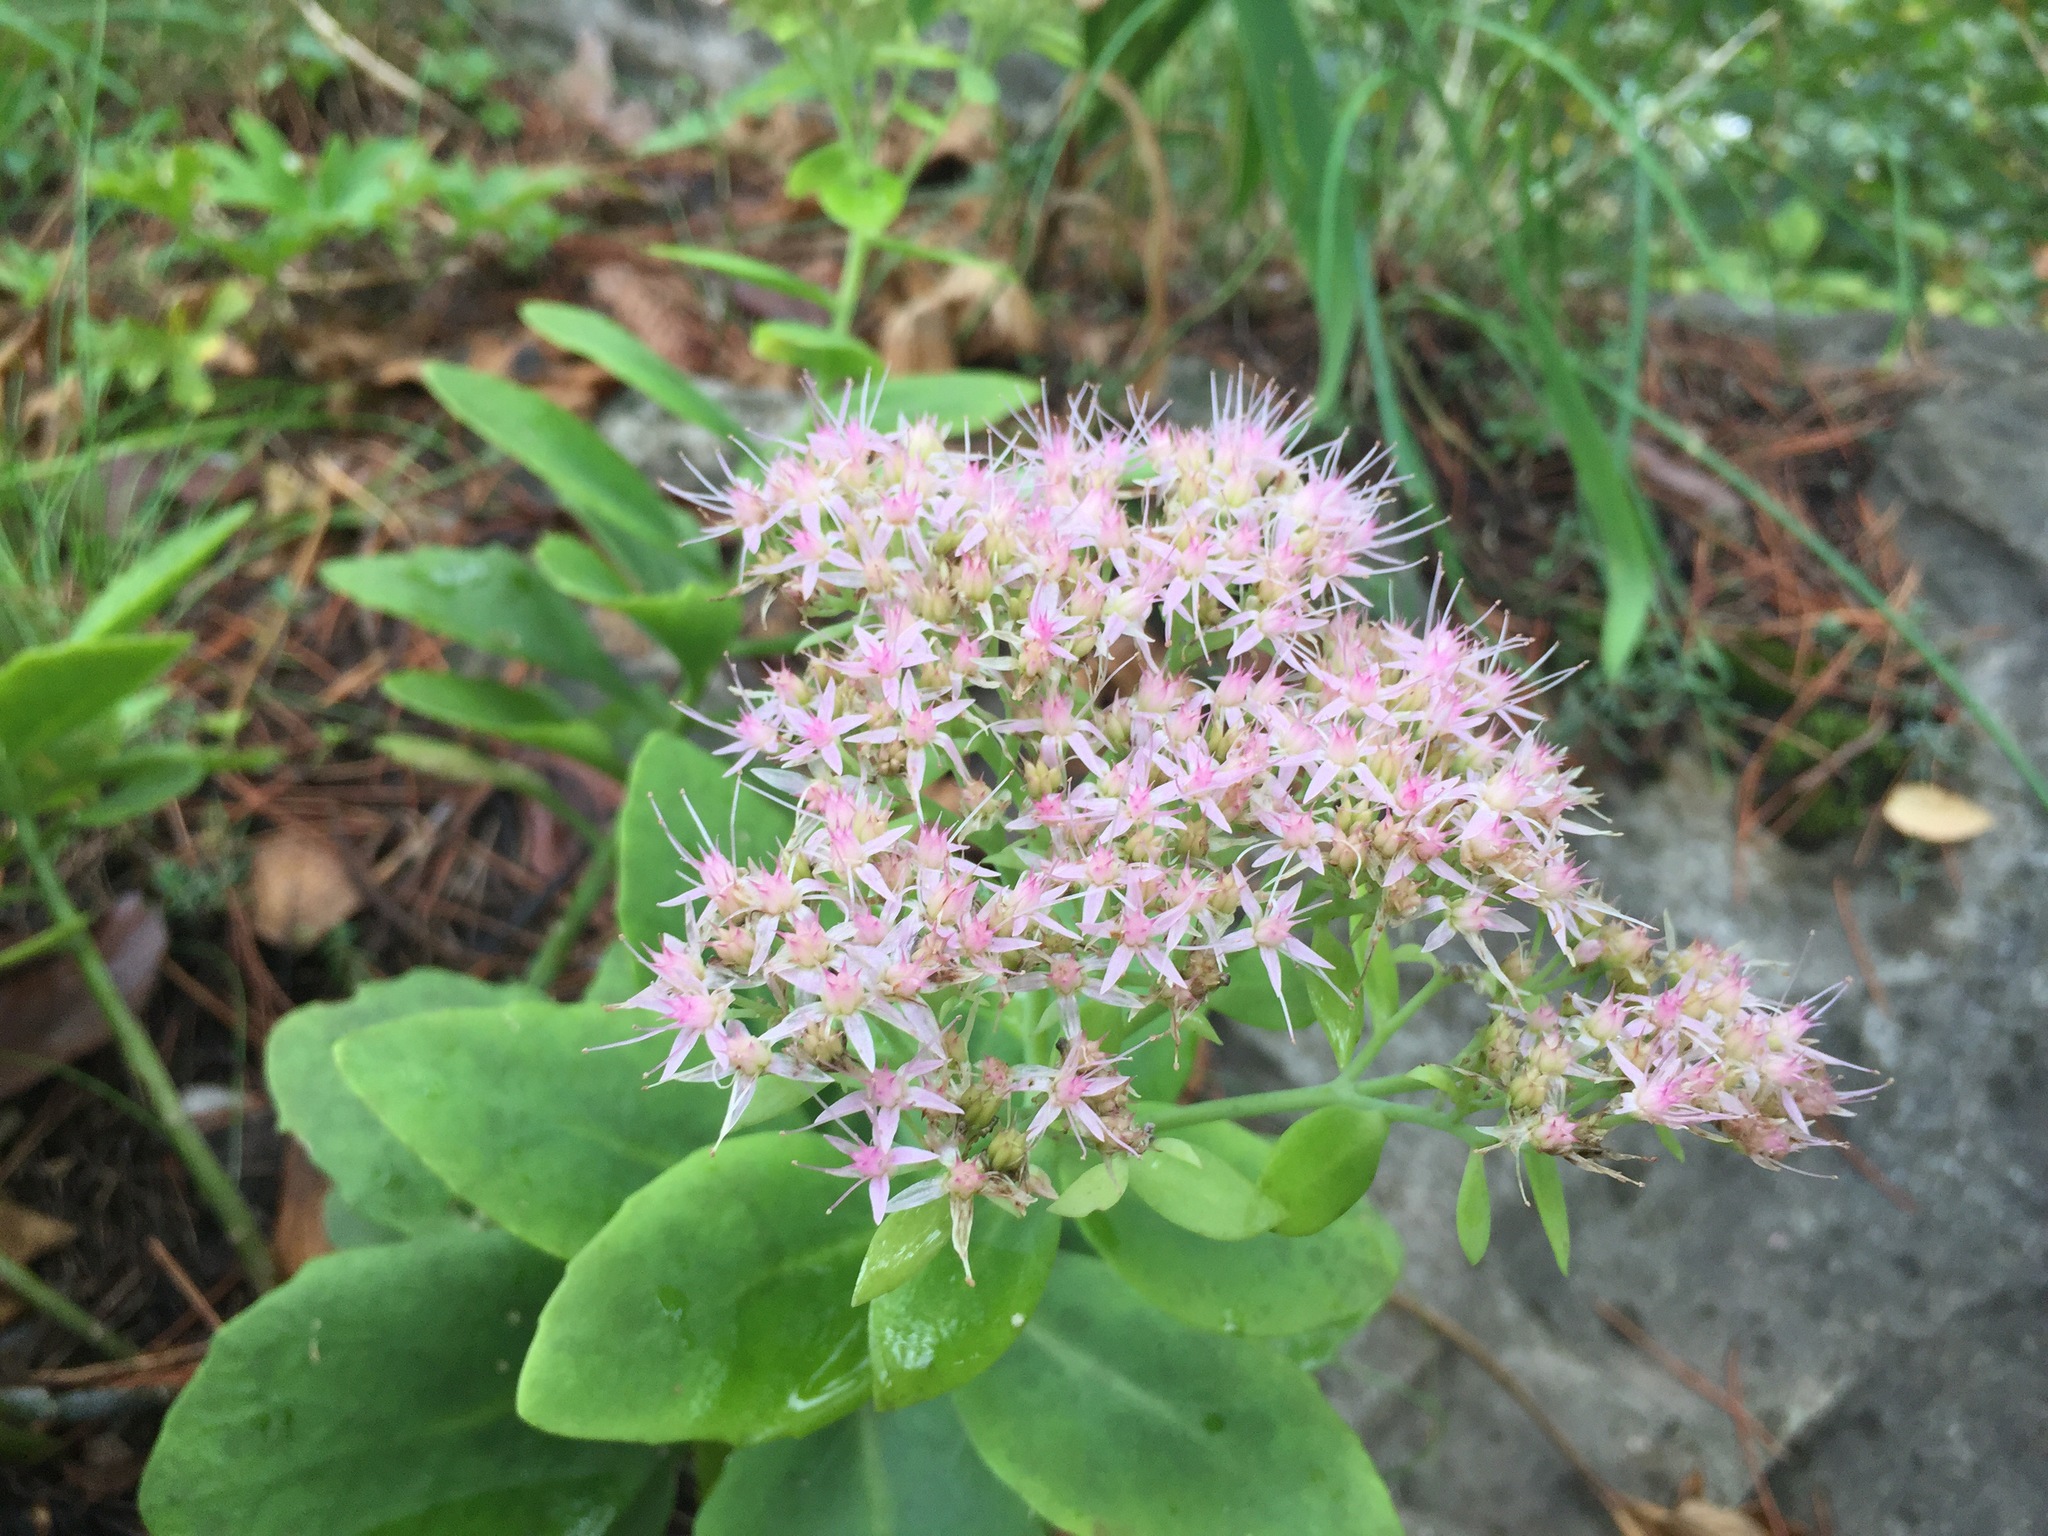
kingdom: Plantae
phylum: Tracheophyta
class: Magnoliopsida
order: Saxifragales
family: Crassulaceae
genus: Hylotelephium
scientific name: Hylotelephium spectabile
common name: Showy stonecrop
